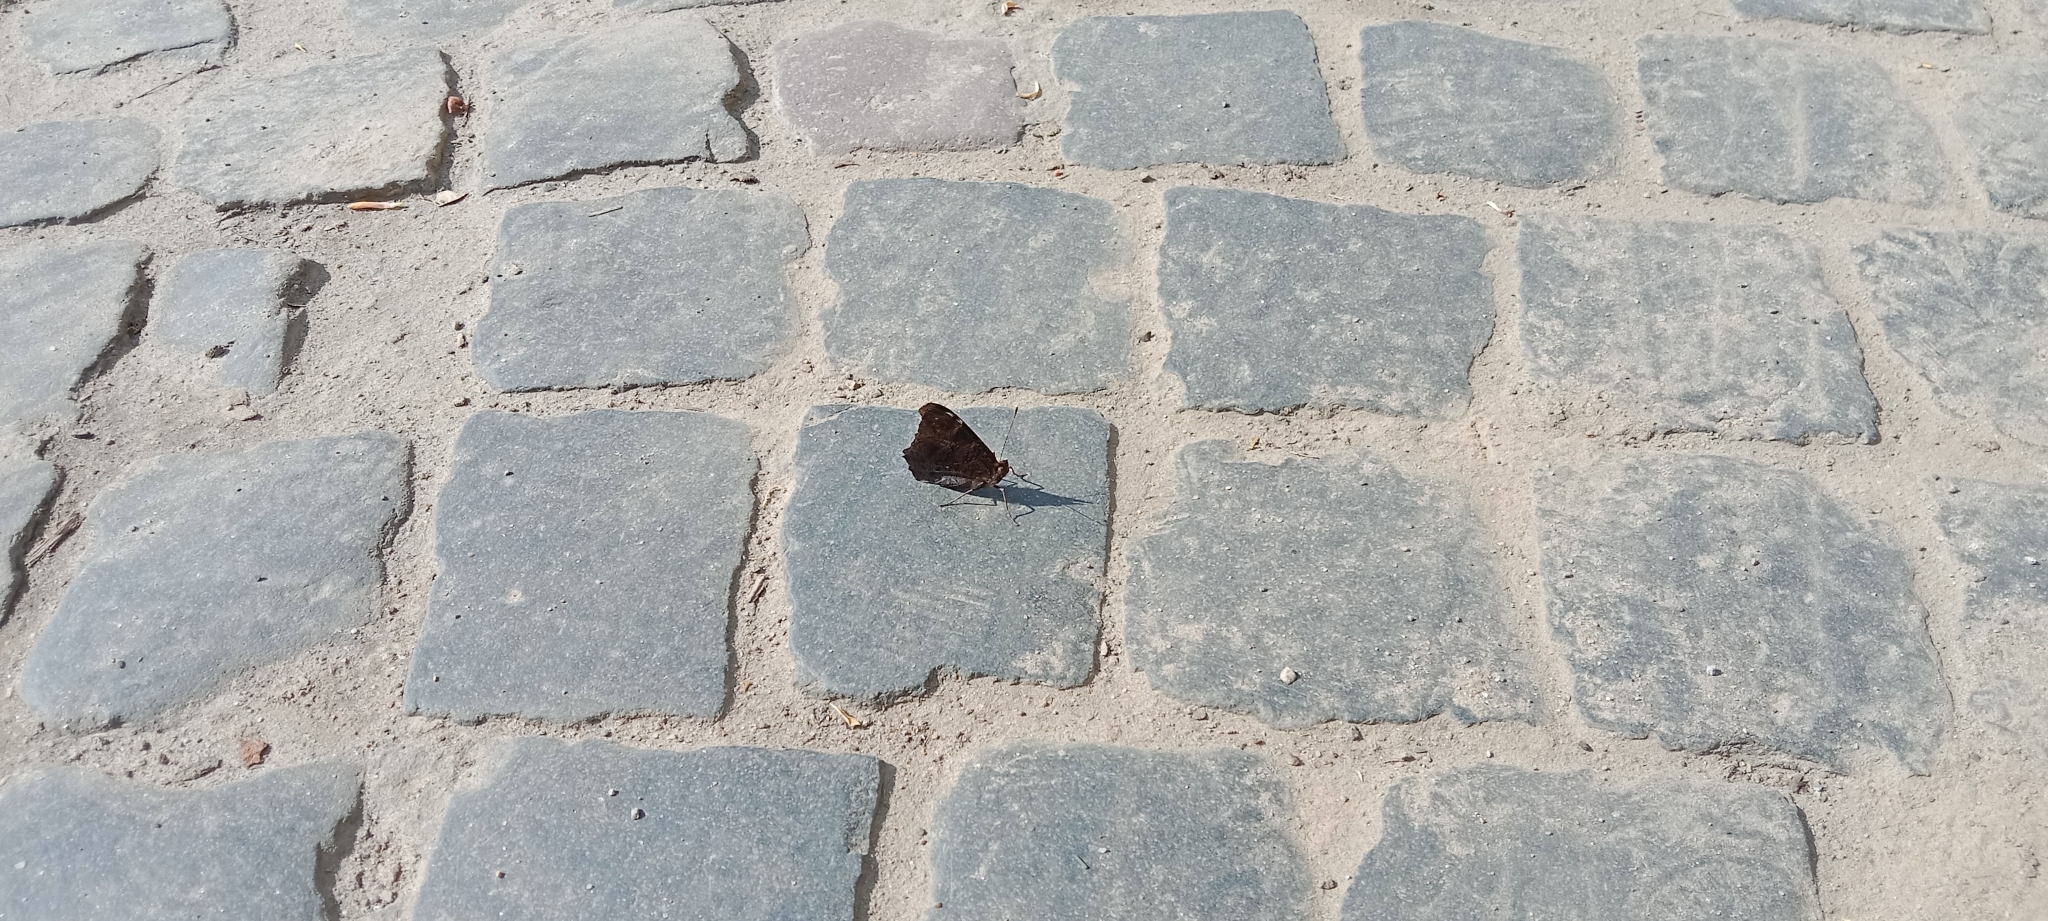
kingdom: Animalia
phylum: Arthropoda
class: Insecta
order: Lepidoptera
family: Nymphalidae
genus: Aglais
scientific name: Aglais io
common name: Peacock
